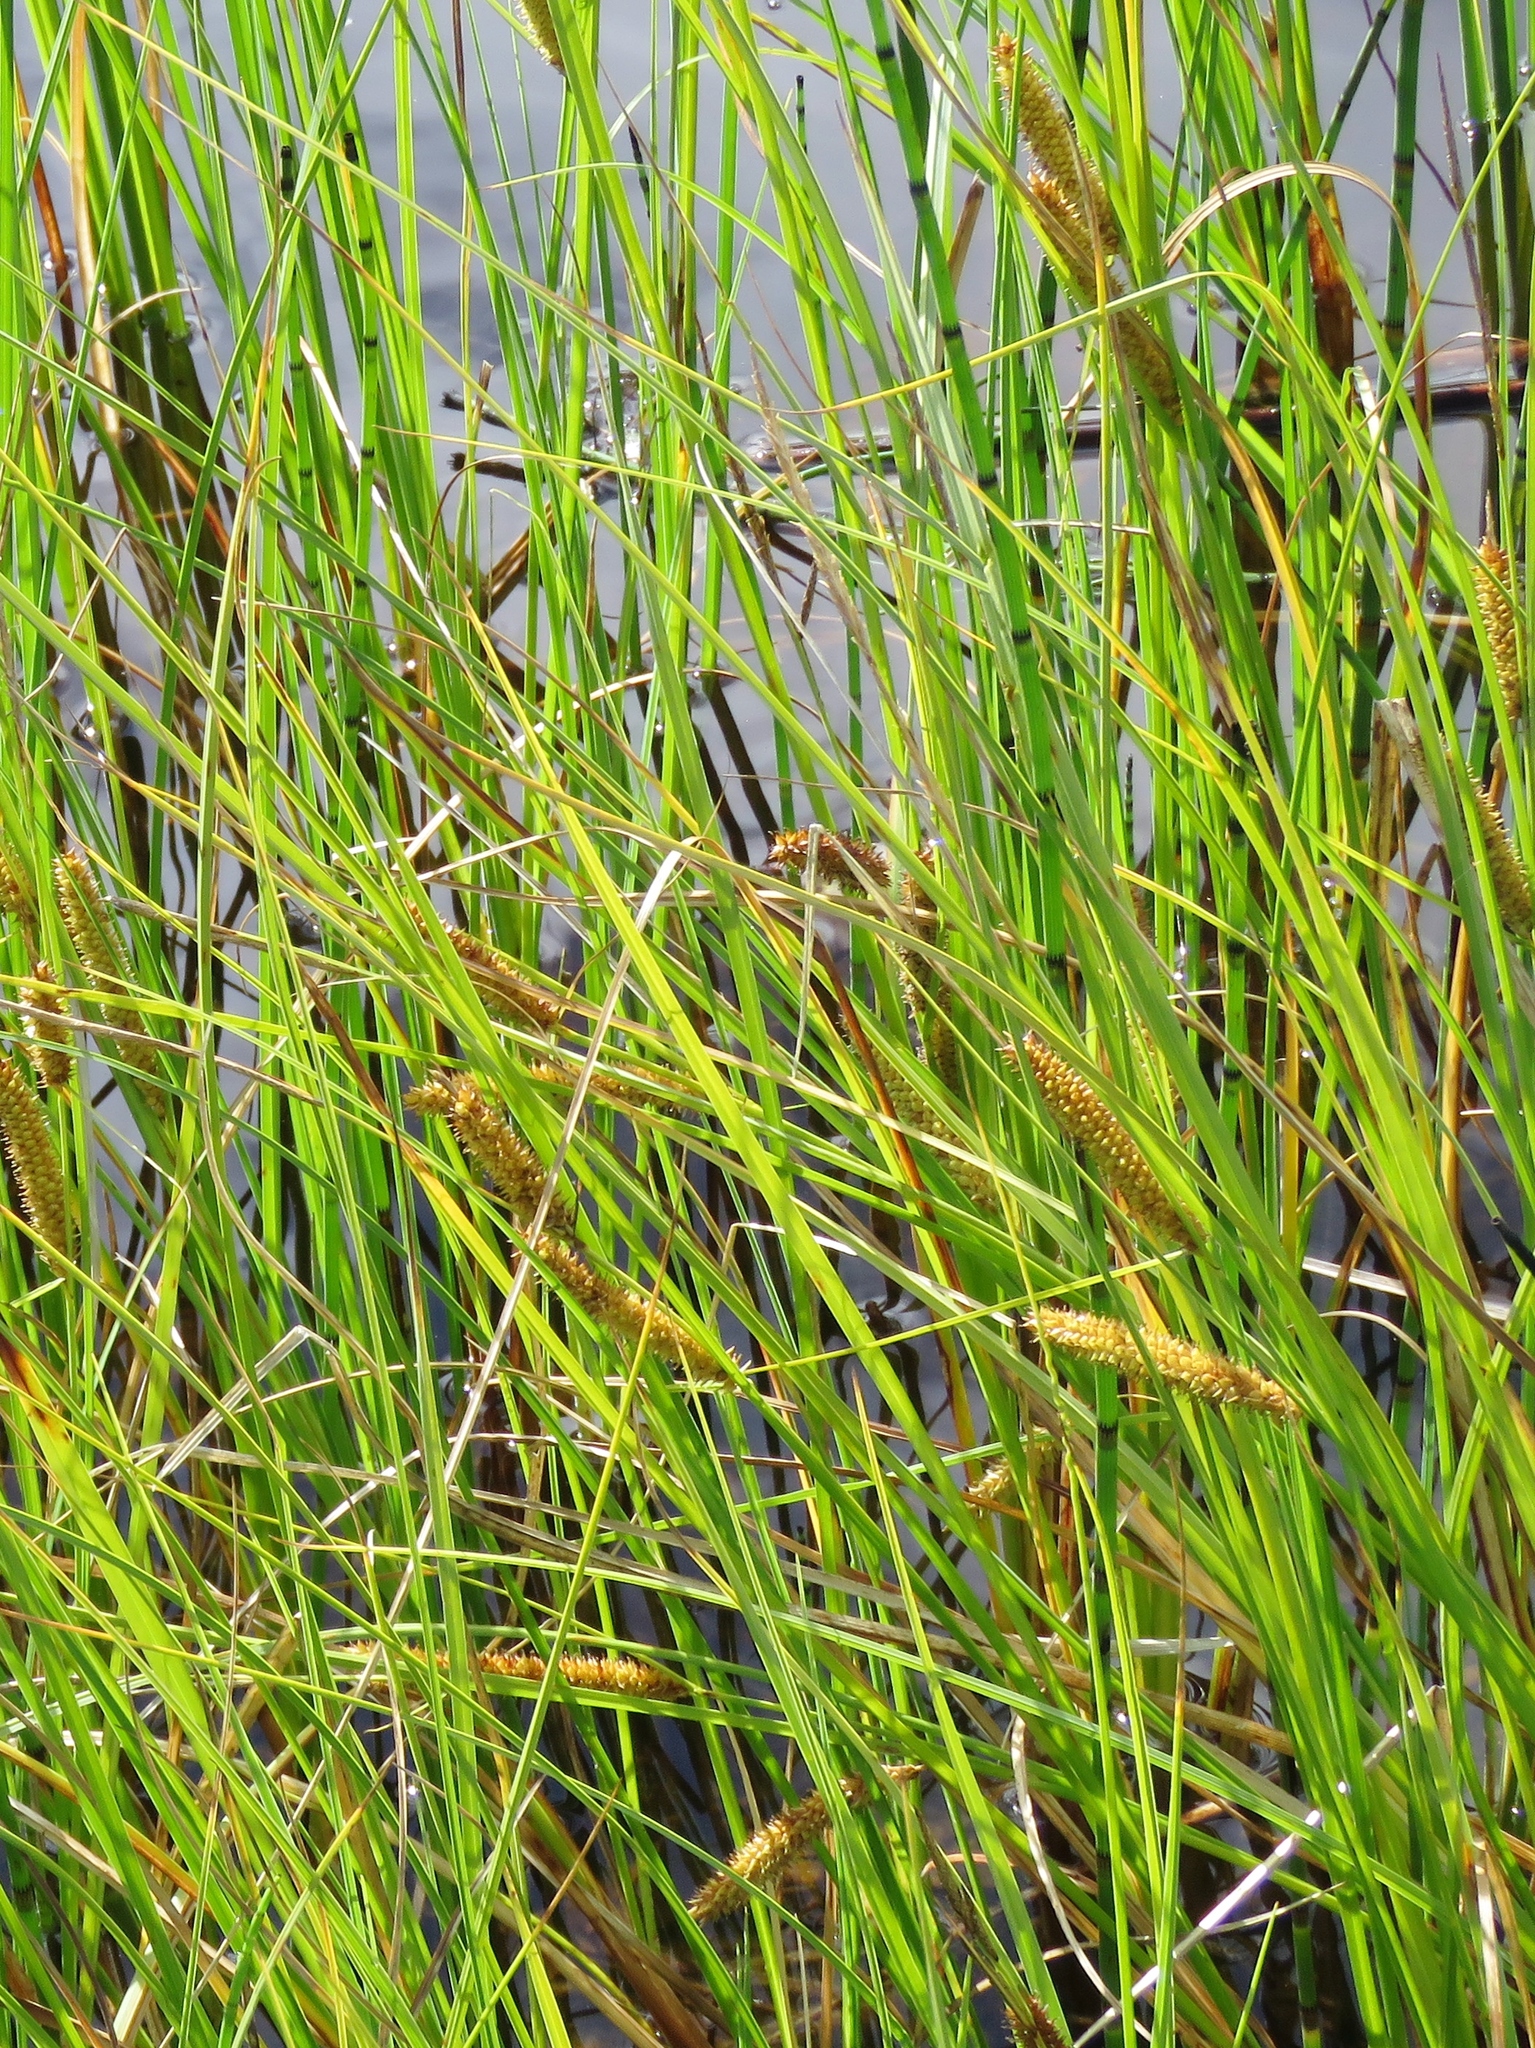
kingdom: Plantae
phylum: Tracheophyta
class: Liliopsida
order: Poales
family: Cyperaceae
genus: Carex
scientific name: Carex vesicaria
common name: Bladder-sedge
